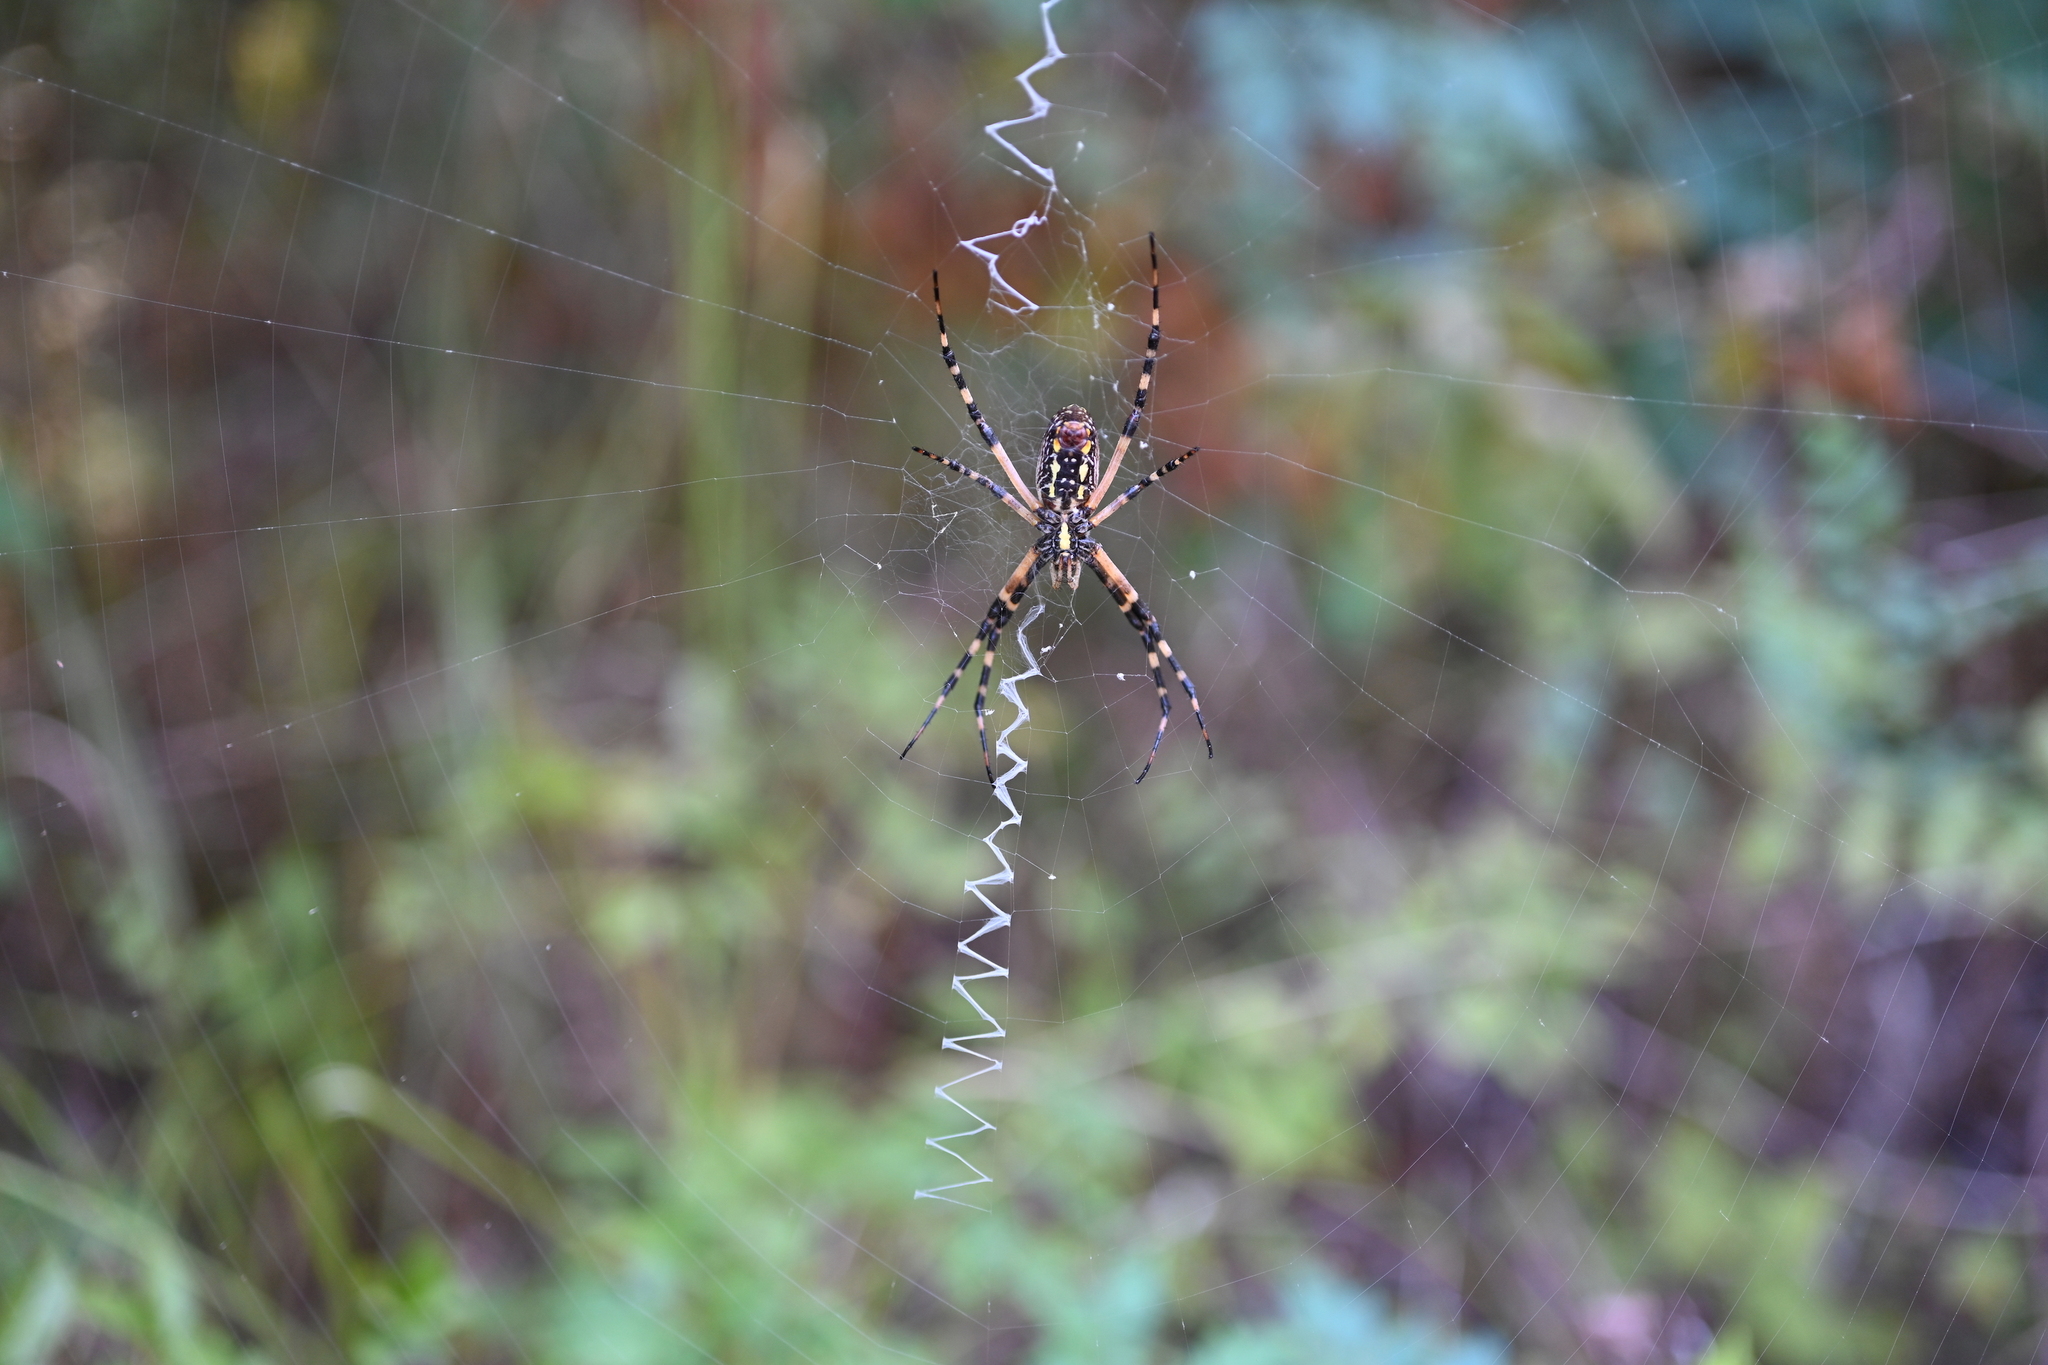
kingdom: Animalia
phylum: Arthropoda
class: Arachnida
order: Araneae
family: Araneidae
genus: Argiope
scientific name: Argiope aurantia
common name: Orb weavers
